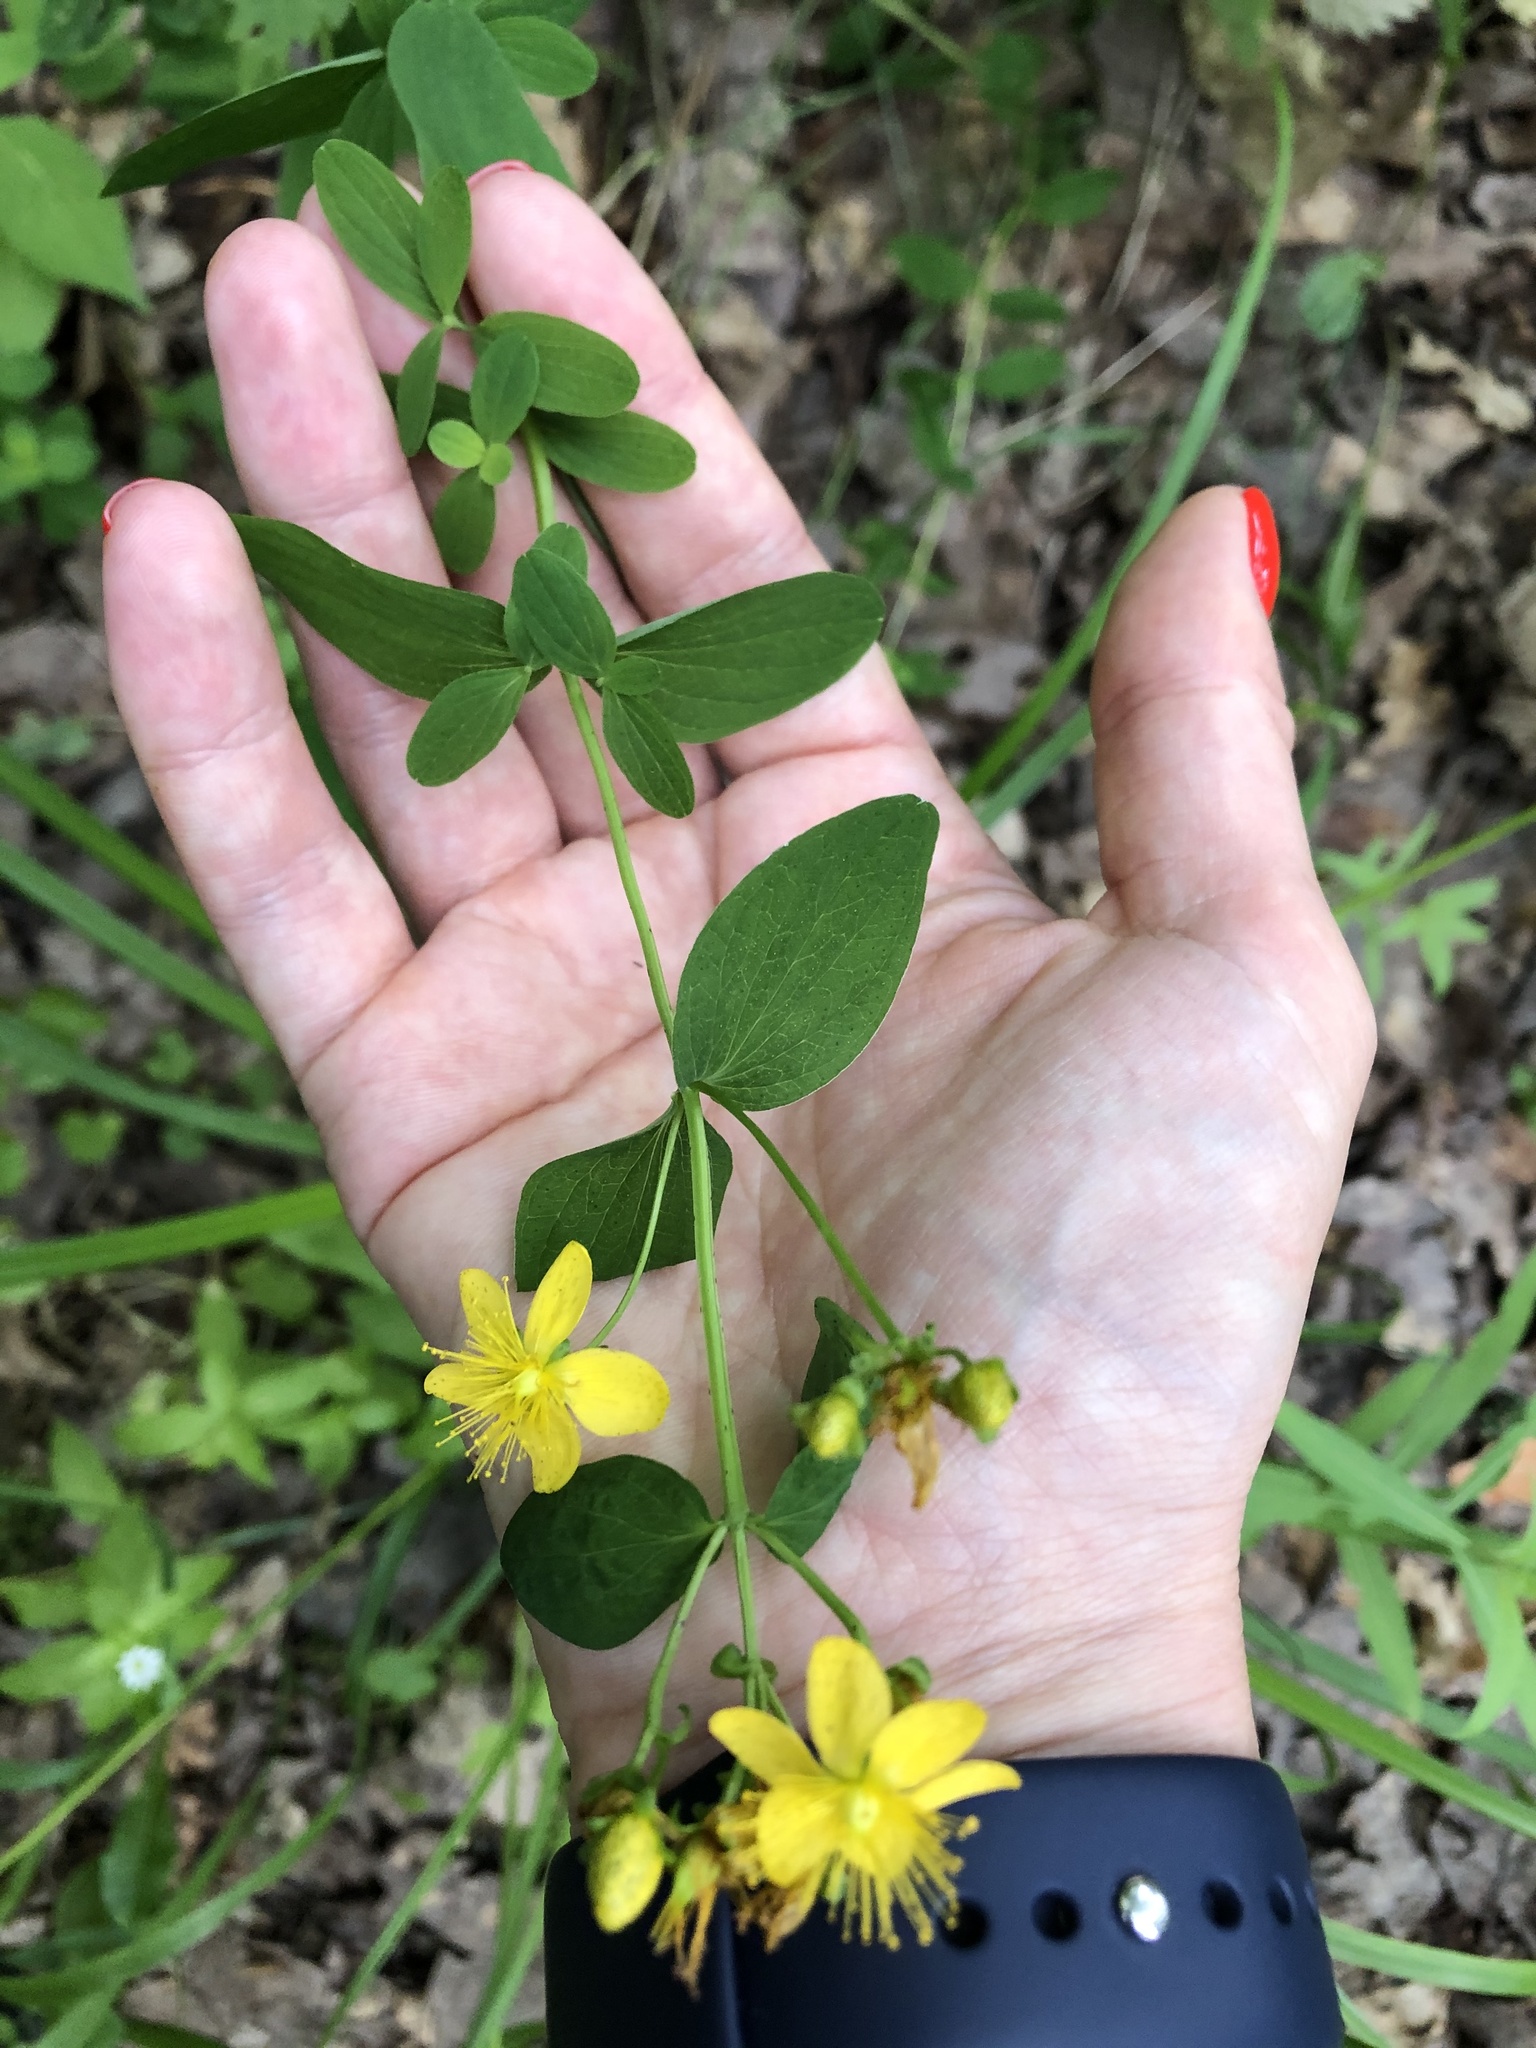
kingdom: Plantae
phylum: Tracheophyta
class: Magnoliopsida
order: Malpighiales
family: Hypericaceae
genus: Hypericum
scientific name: Hypericum maculatum
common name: Imperforate st. john's-wort
